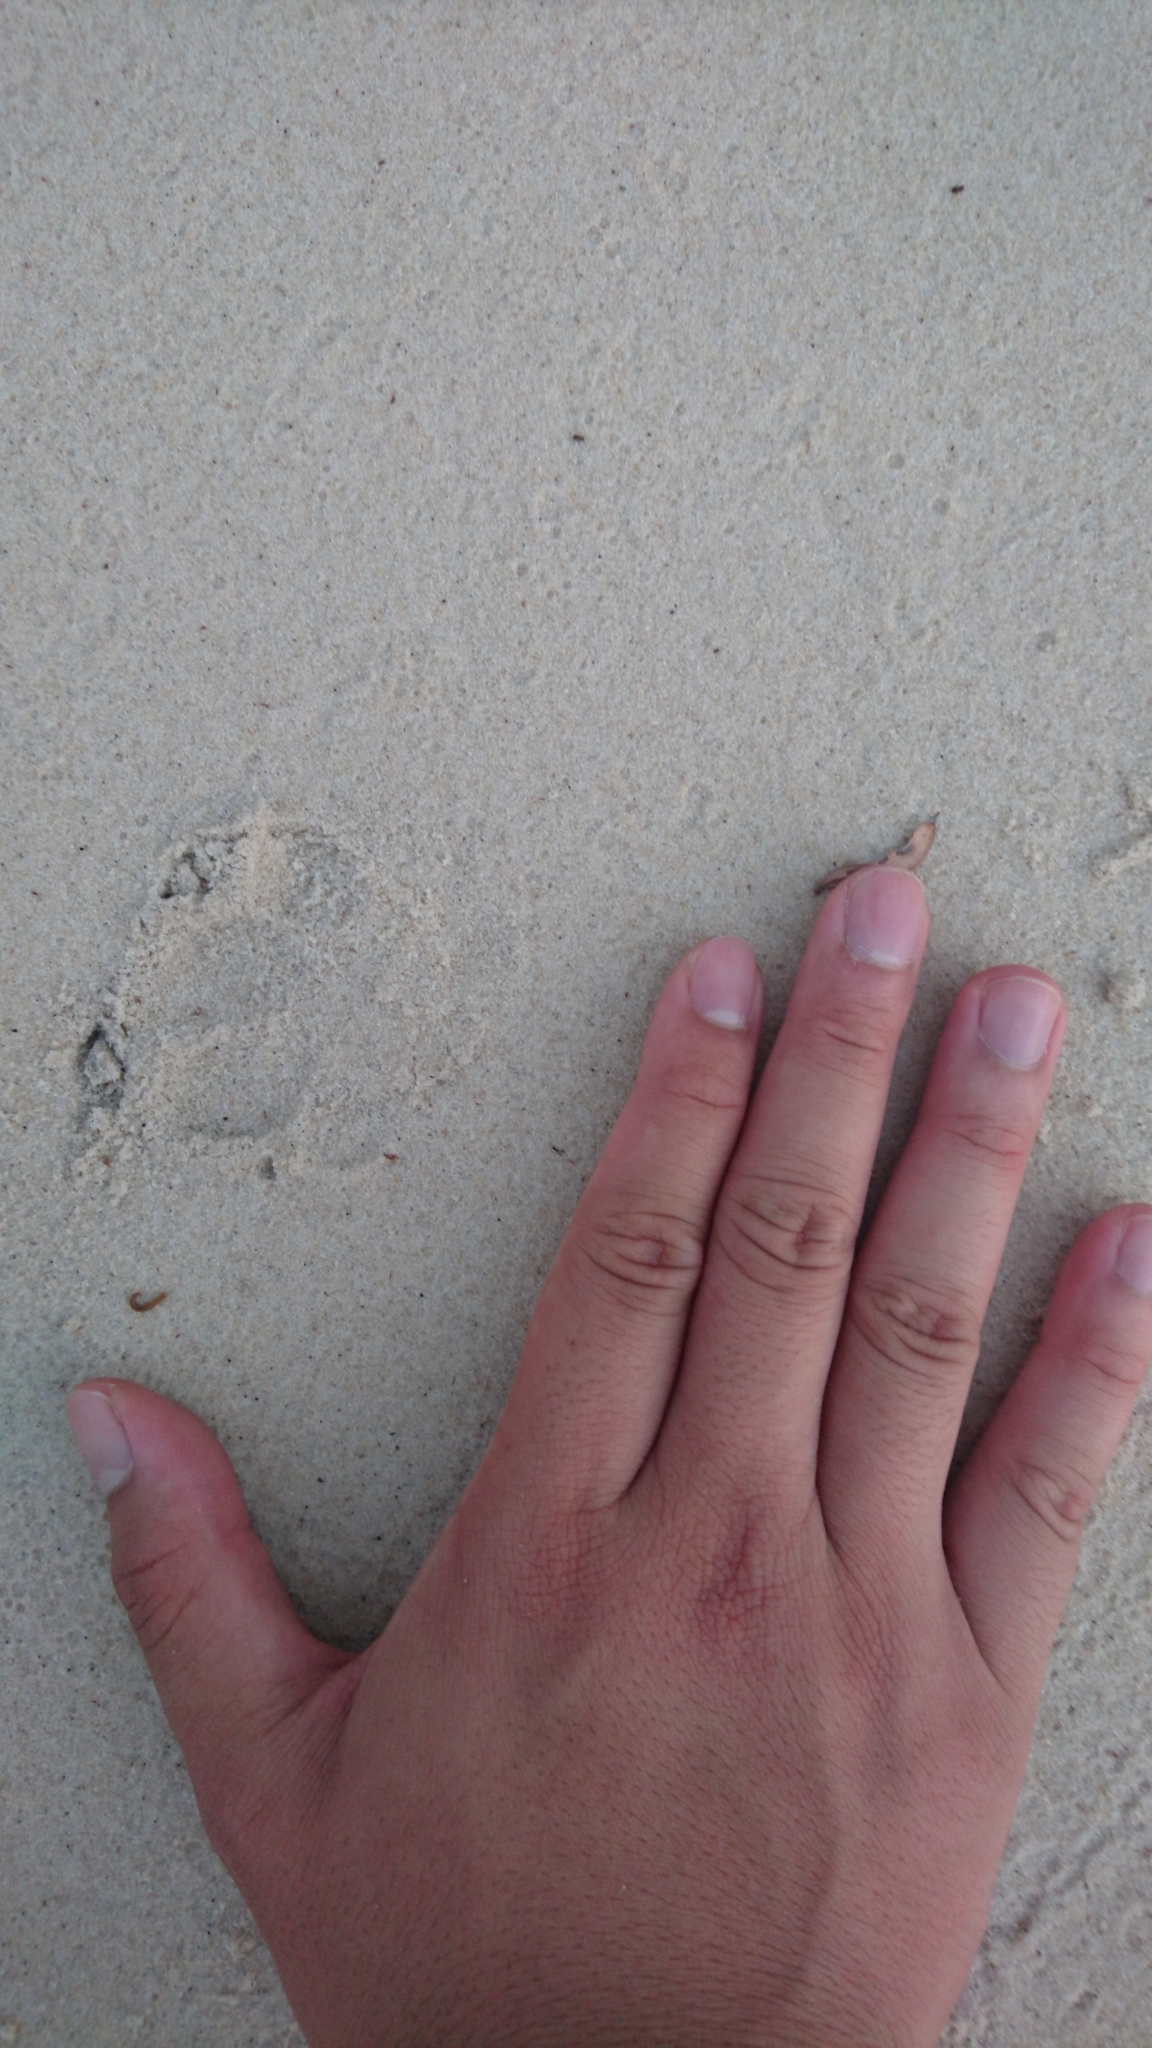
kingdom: Animalia
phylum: Chordata
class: Mammalia
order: Carnivora
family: Canidae
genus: Canis
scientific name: Canis lupus
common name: Gray wolf
